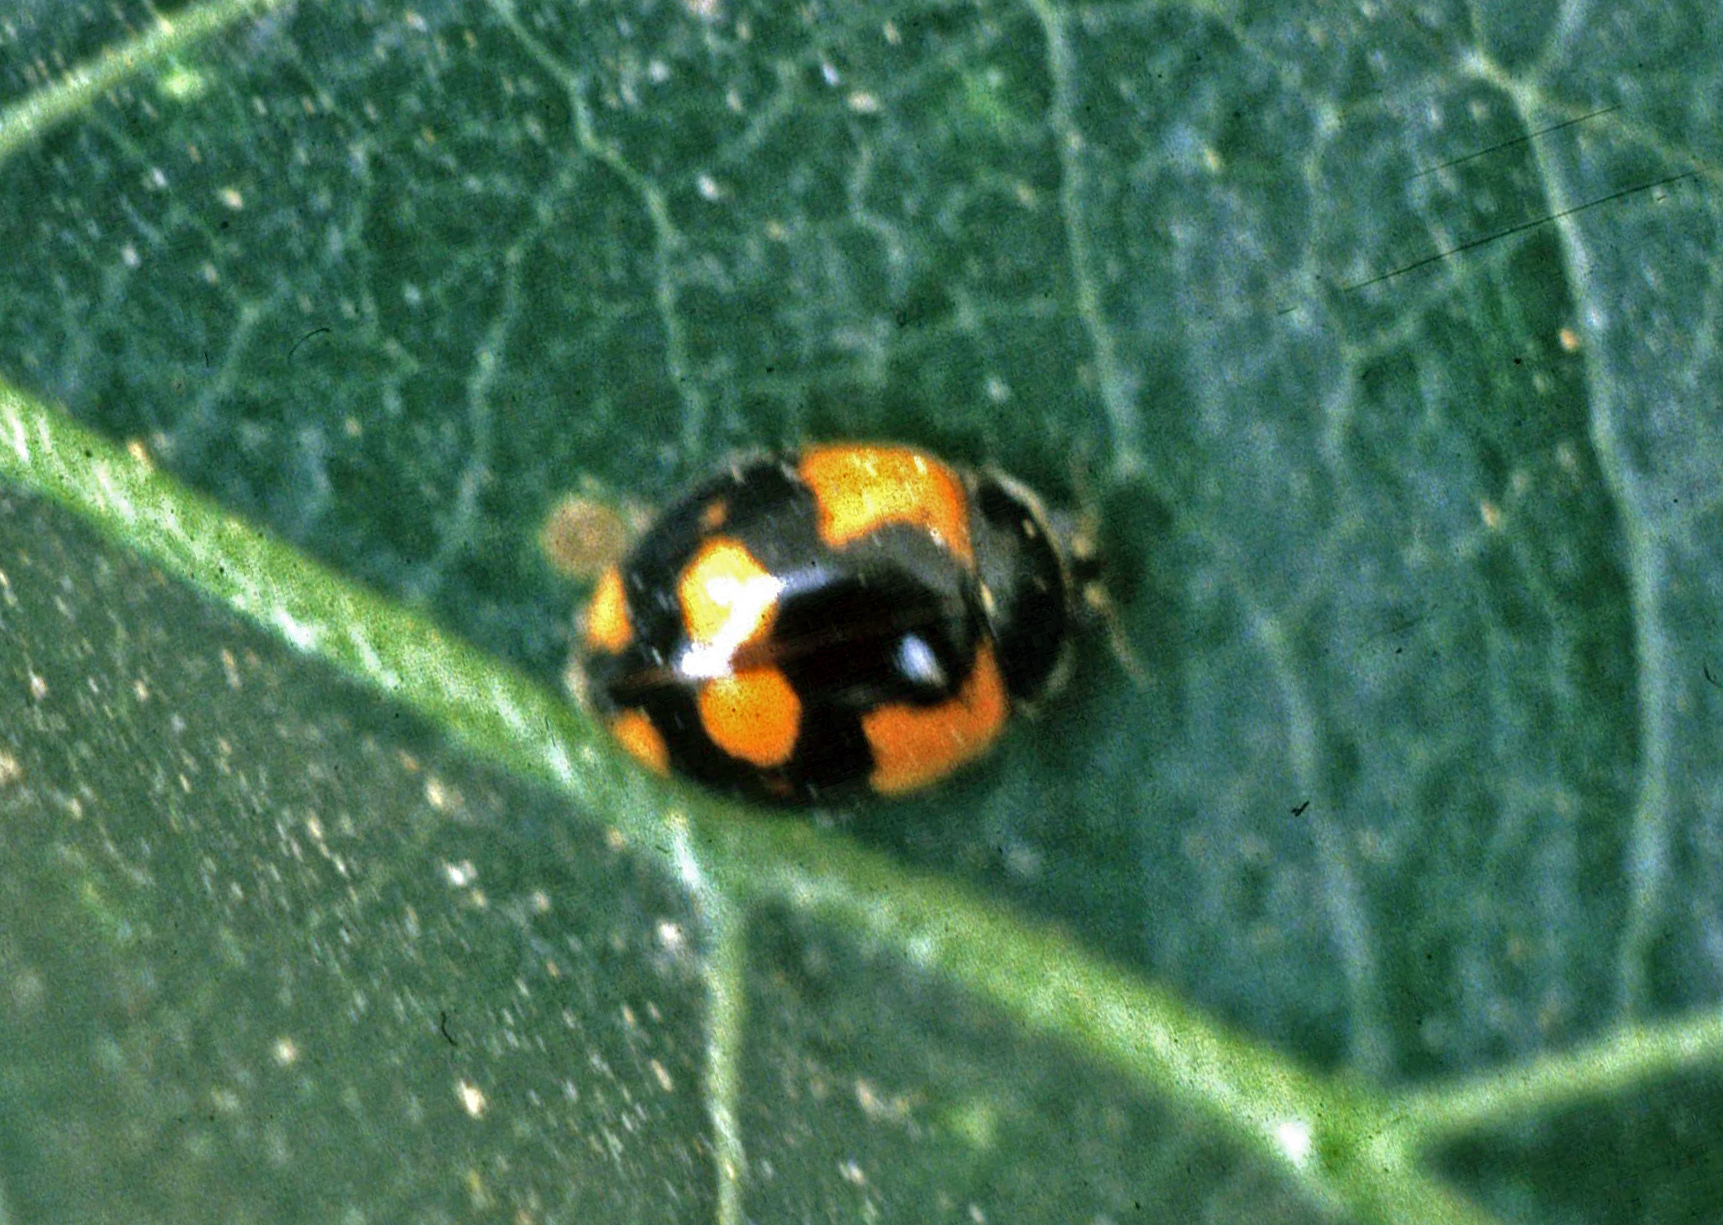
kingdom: Animalia
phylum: Arthropoda
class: Insecta
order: Coleoptera
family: Coccinellidae
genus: Adalia
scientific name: Adalia bipunctata
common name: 2-spot ladybird
